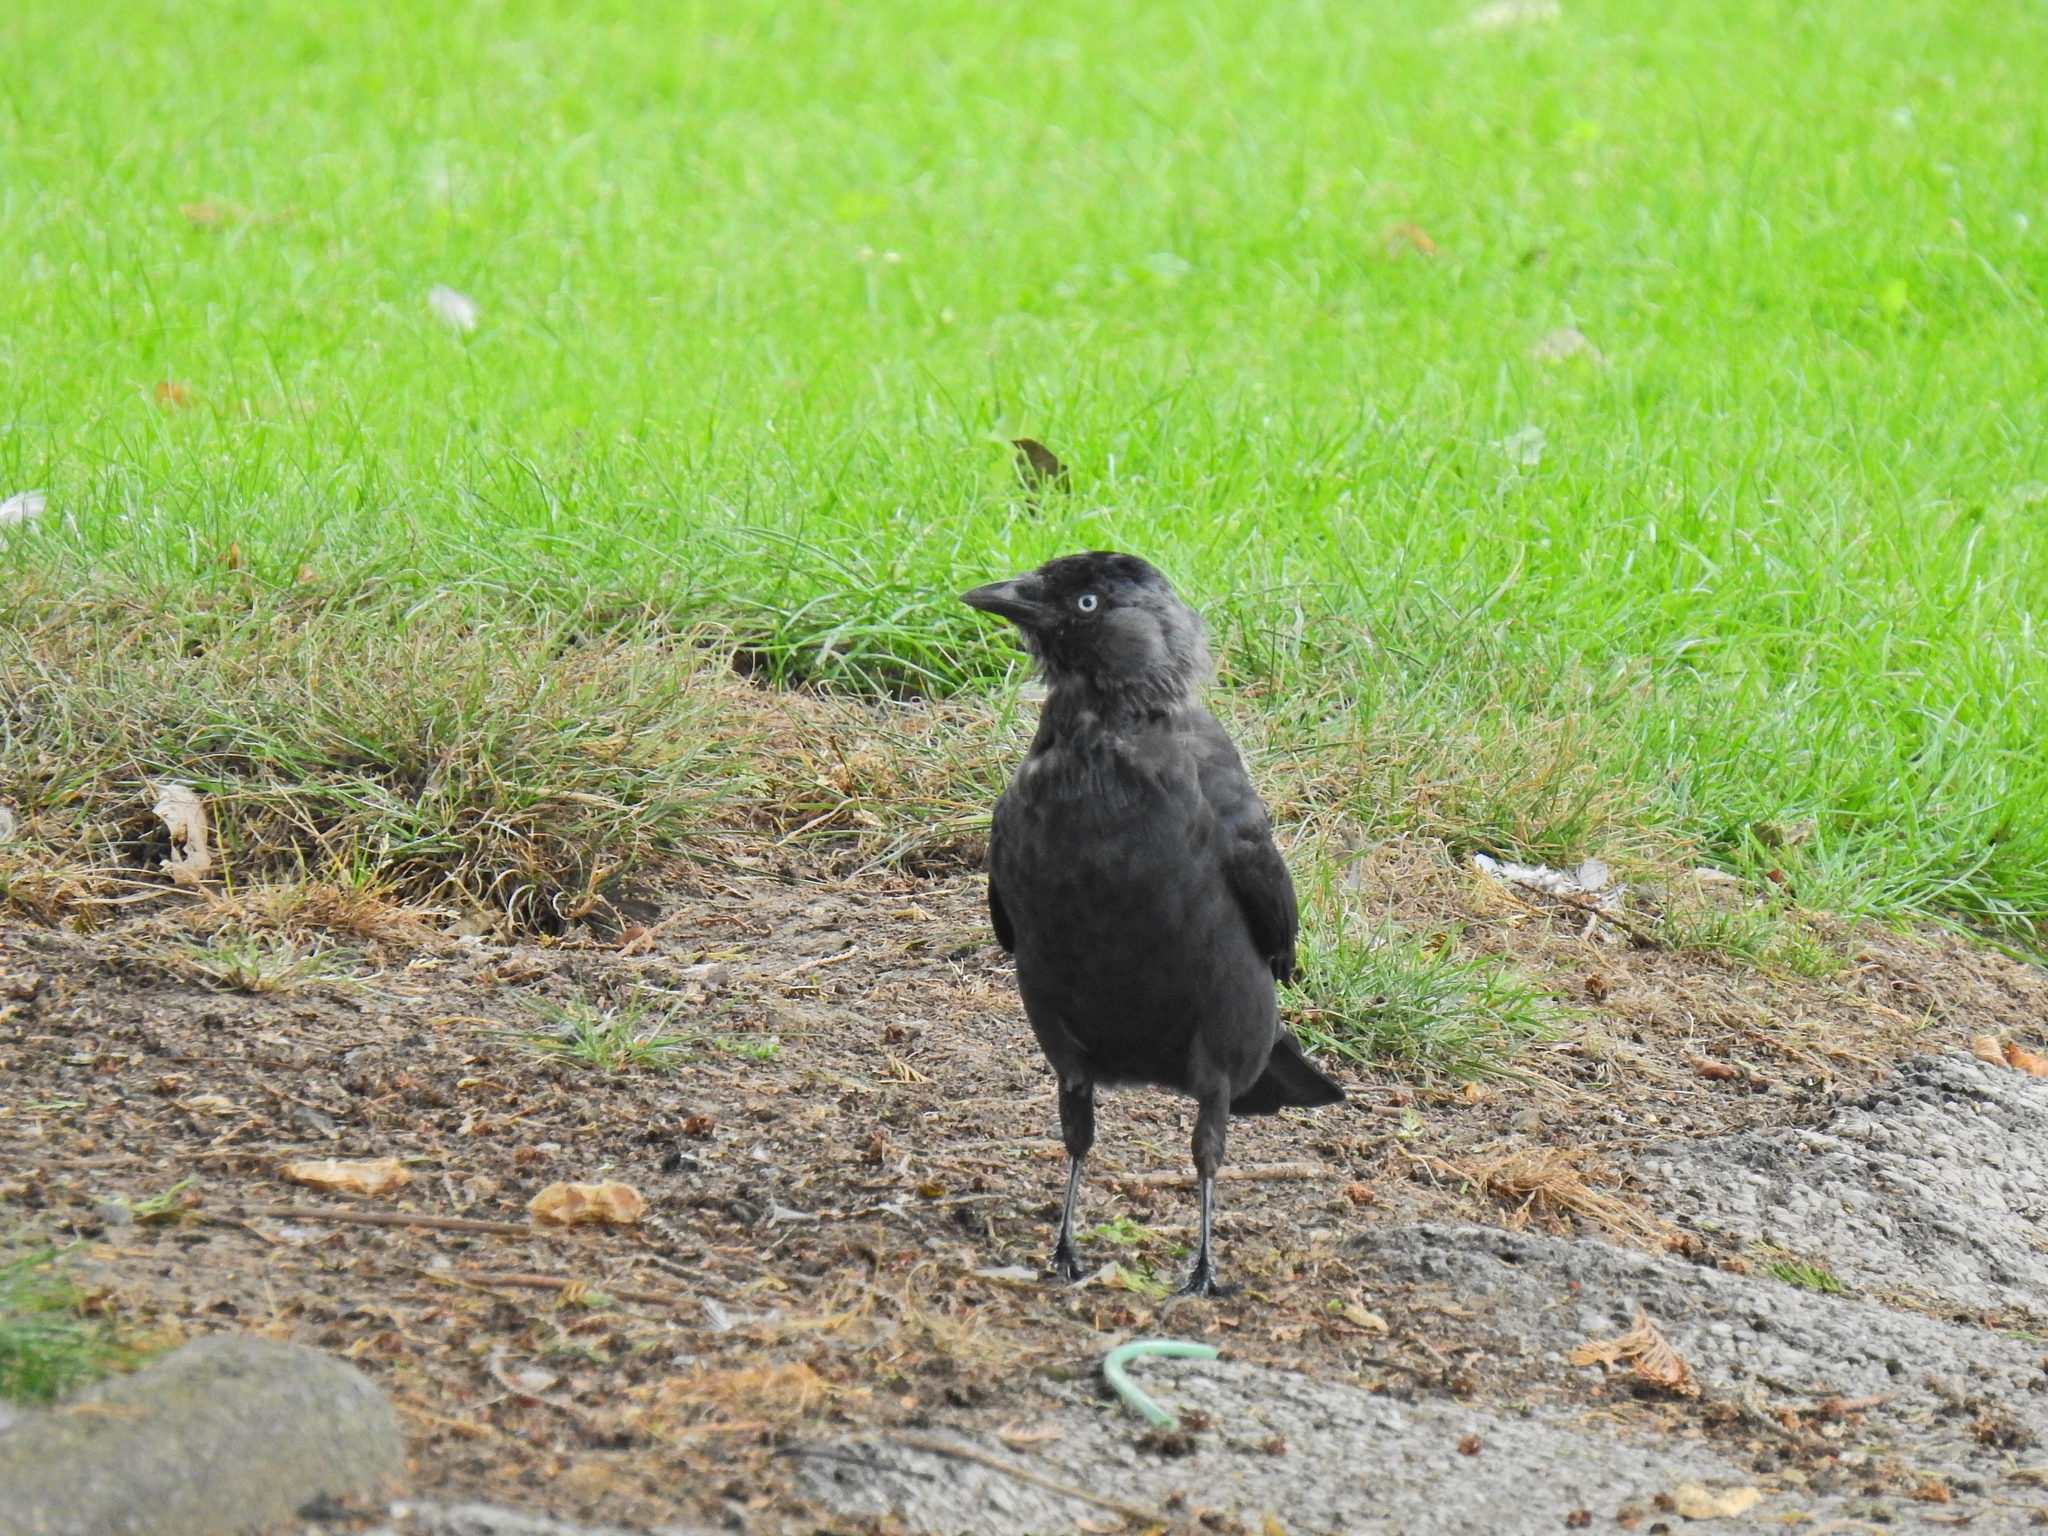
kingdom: Animalia
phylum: Chordata
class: Aves
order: Passeriformes
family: Corvidae
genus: Coloeus
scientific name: Coloeus monedula
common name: Western jackdaw
